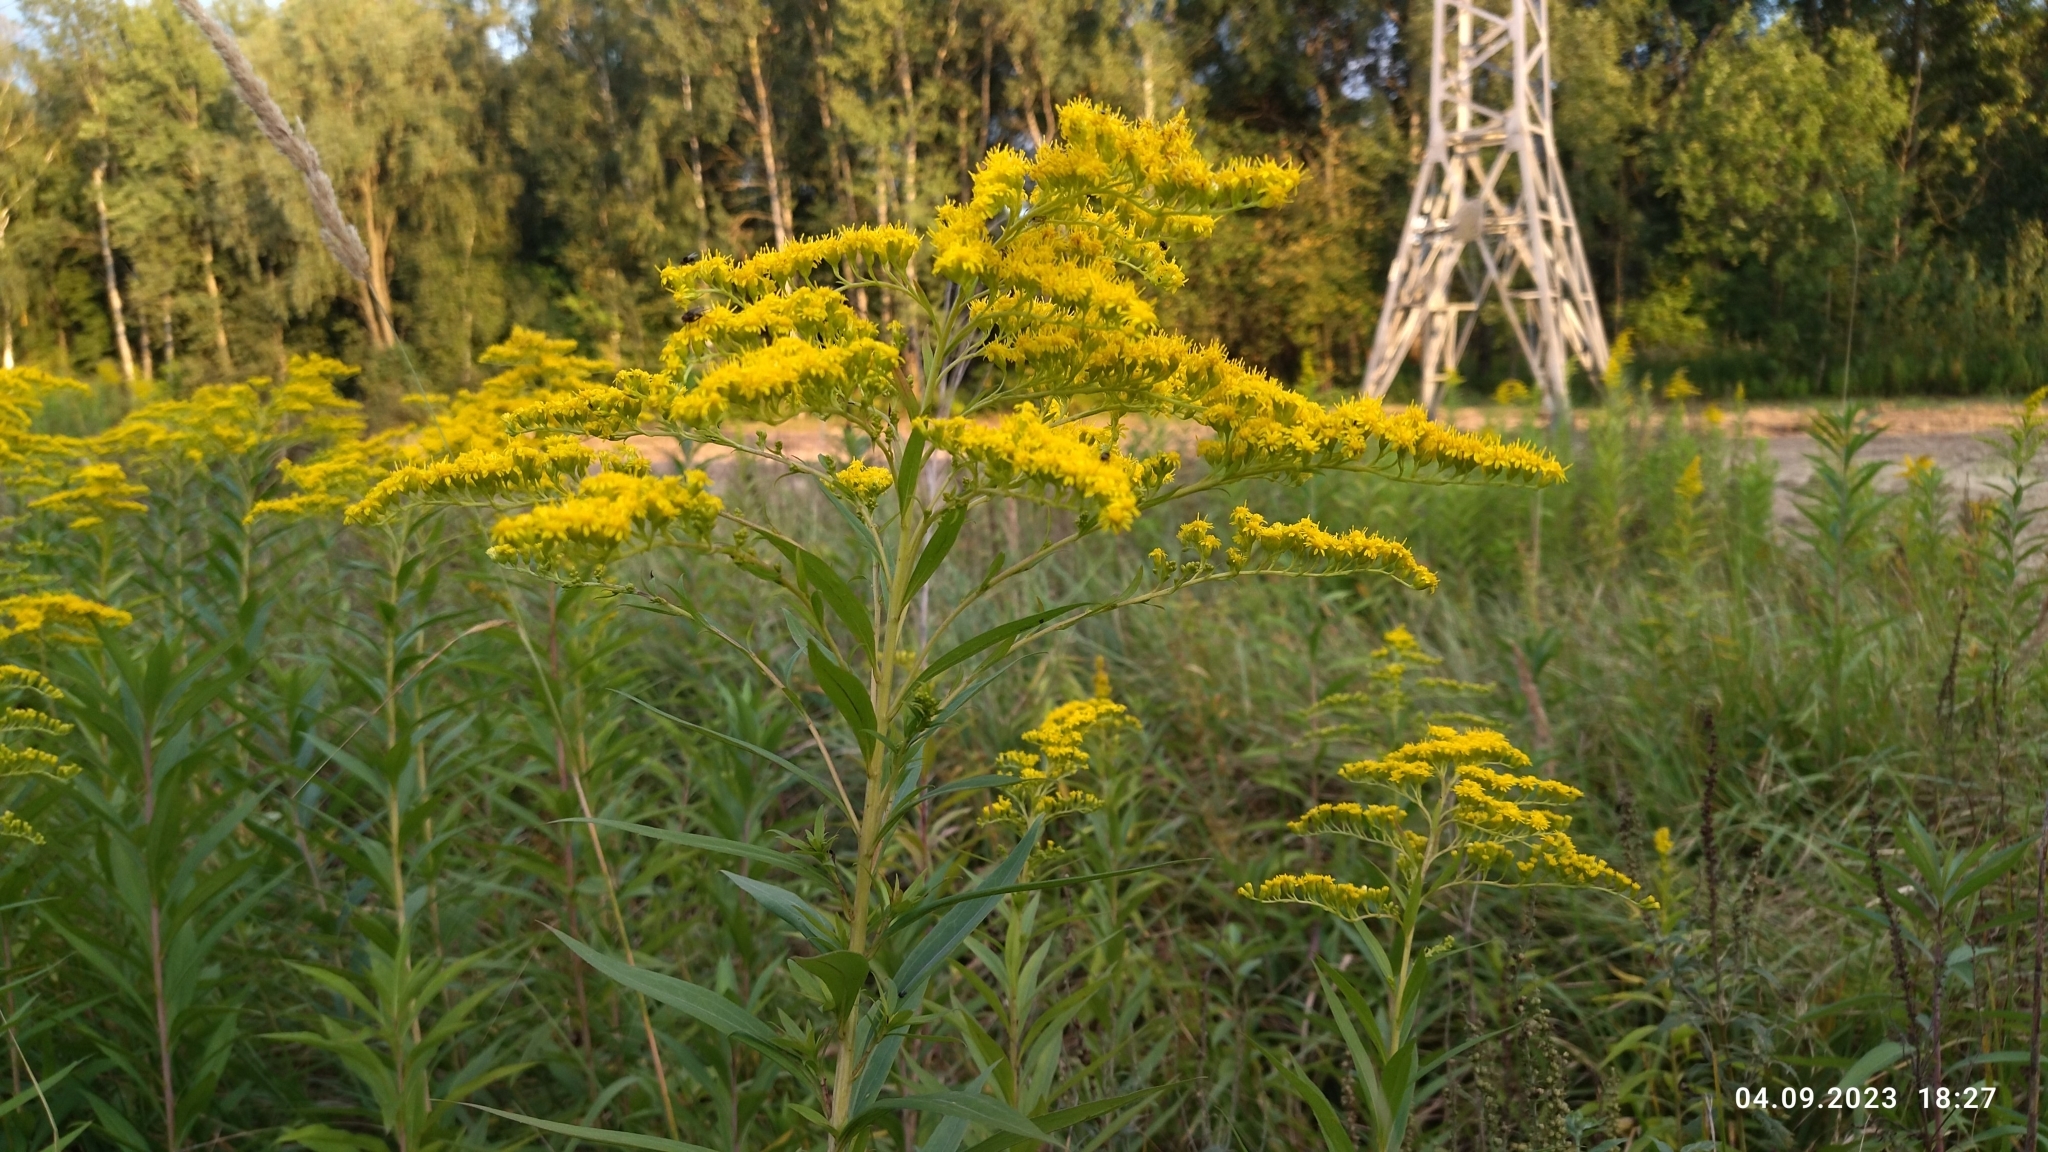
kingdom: Plantae
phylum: Tracheophyta
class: Magnoliopsida
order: Asterales
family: Asteraceae
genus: Solidago
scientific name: Solidago gigantea
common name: Giant goldenrod
